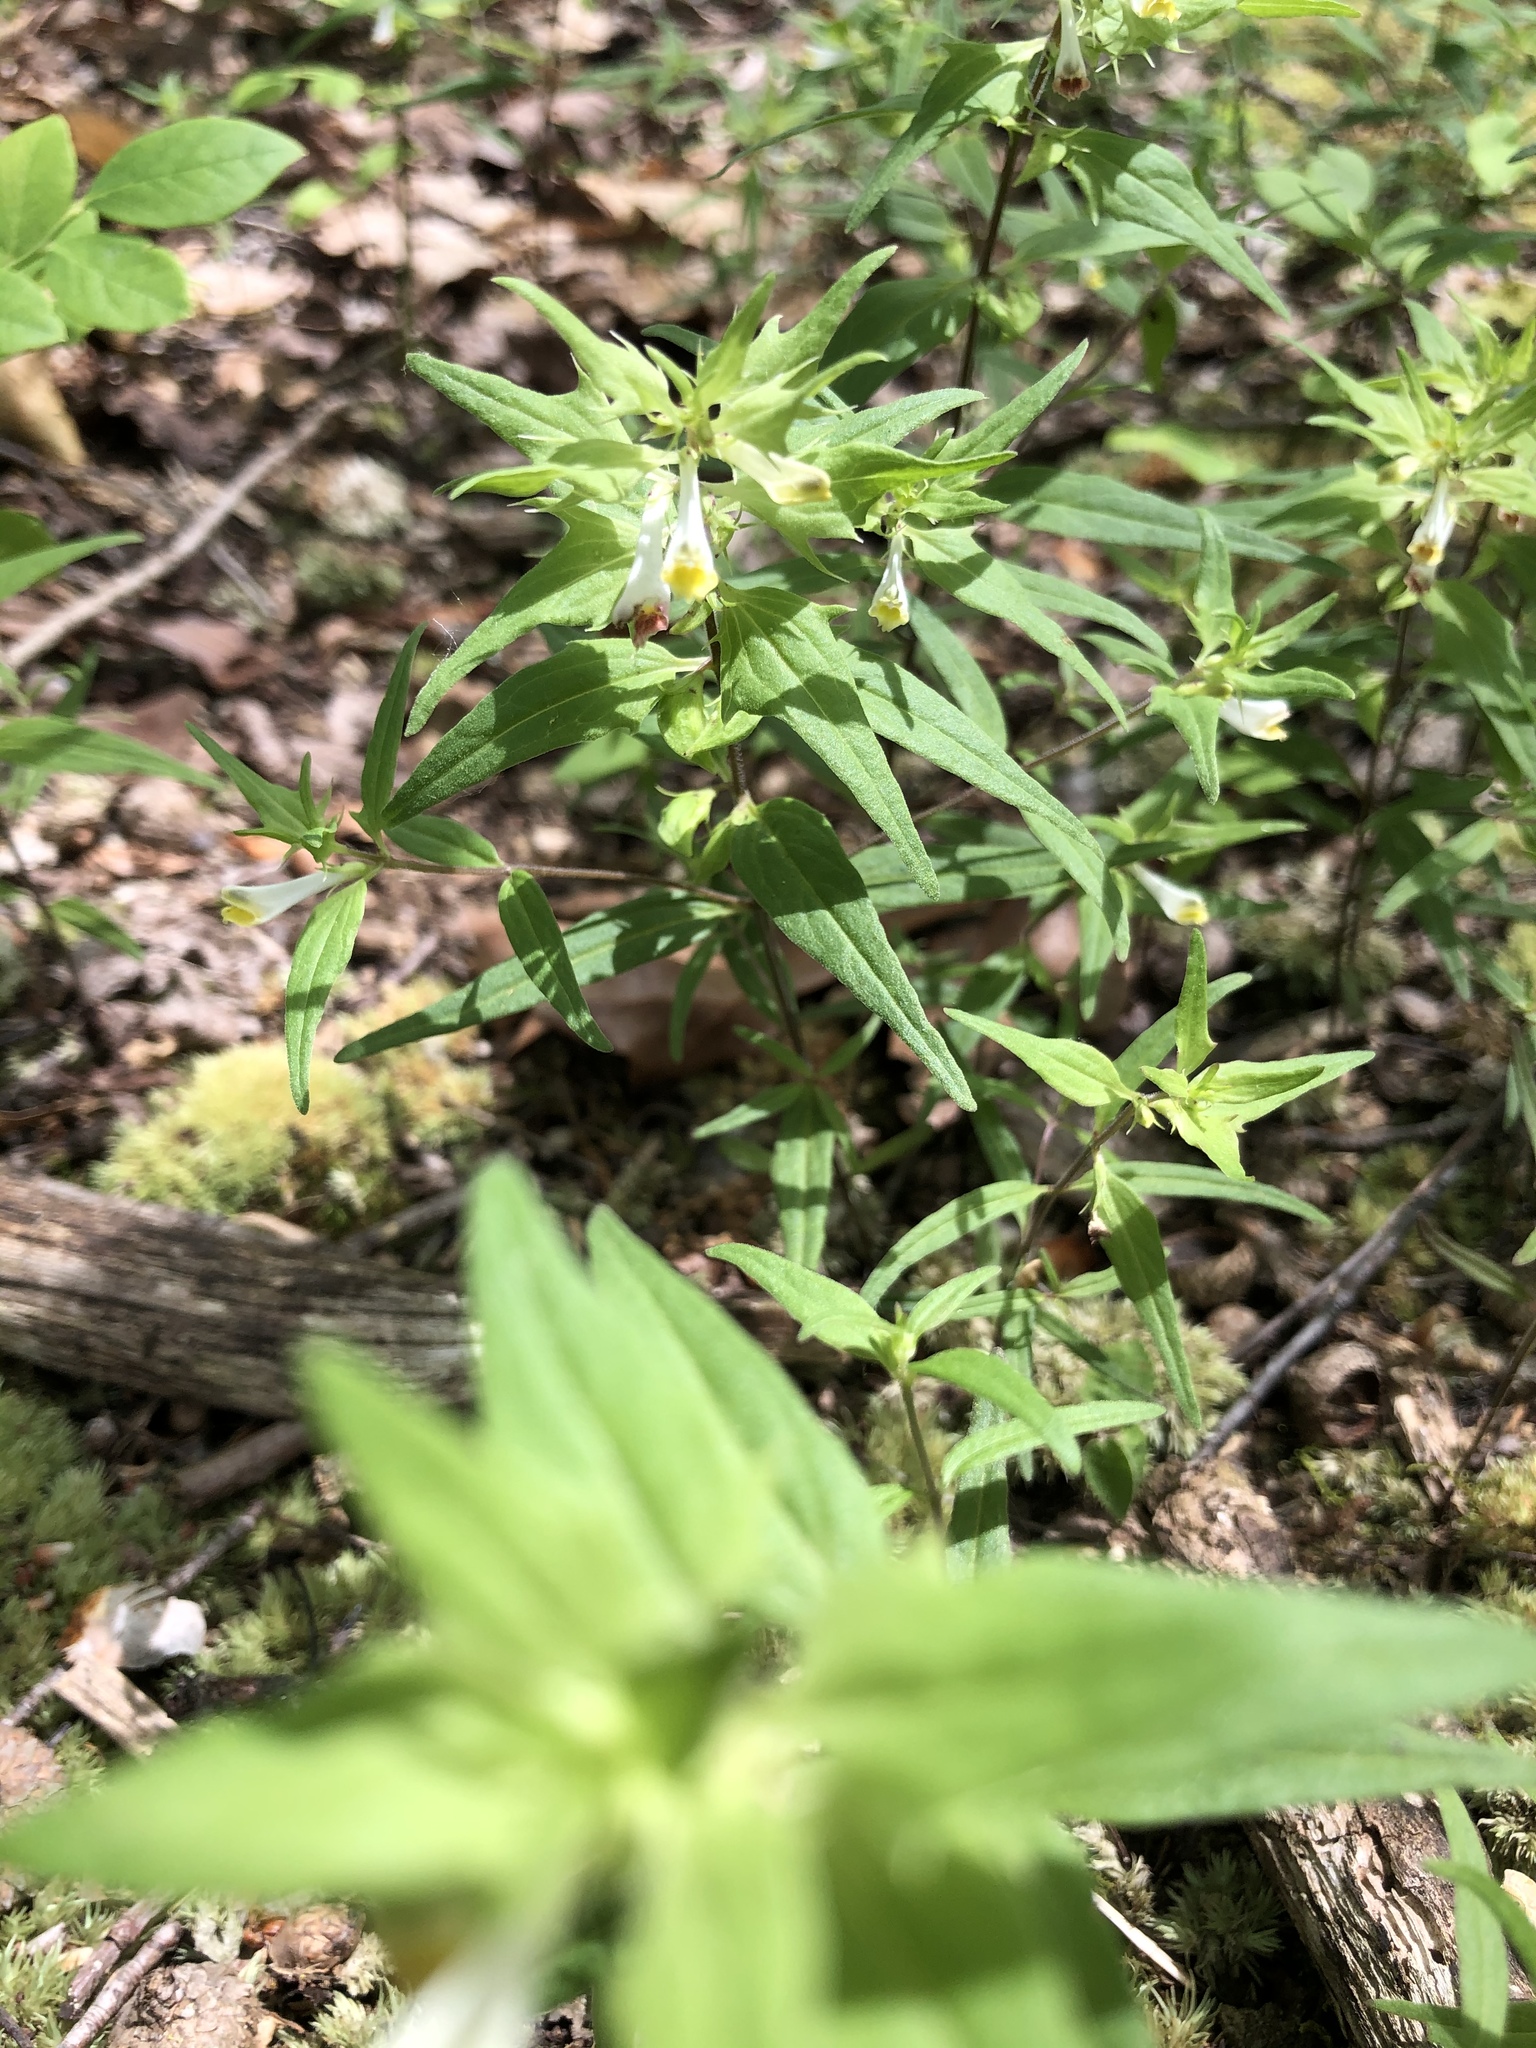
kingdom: Plantae
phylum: Tracheophyta
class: Magnoliopsida
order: Lamiales
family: Orobanchaceae
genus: Melampyrum
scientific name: Melampyrum lineare
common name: American cow-wheat
